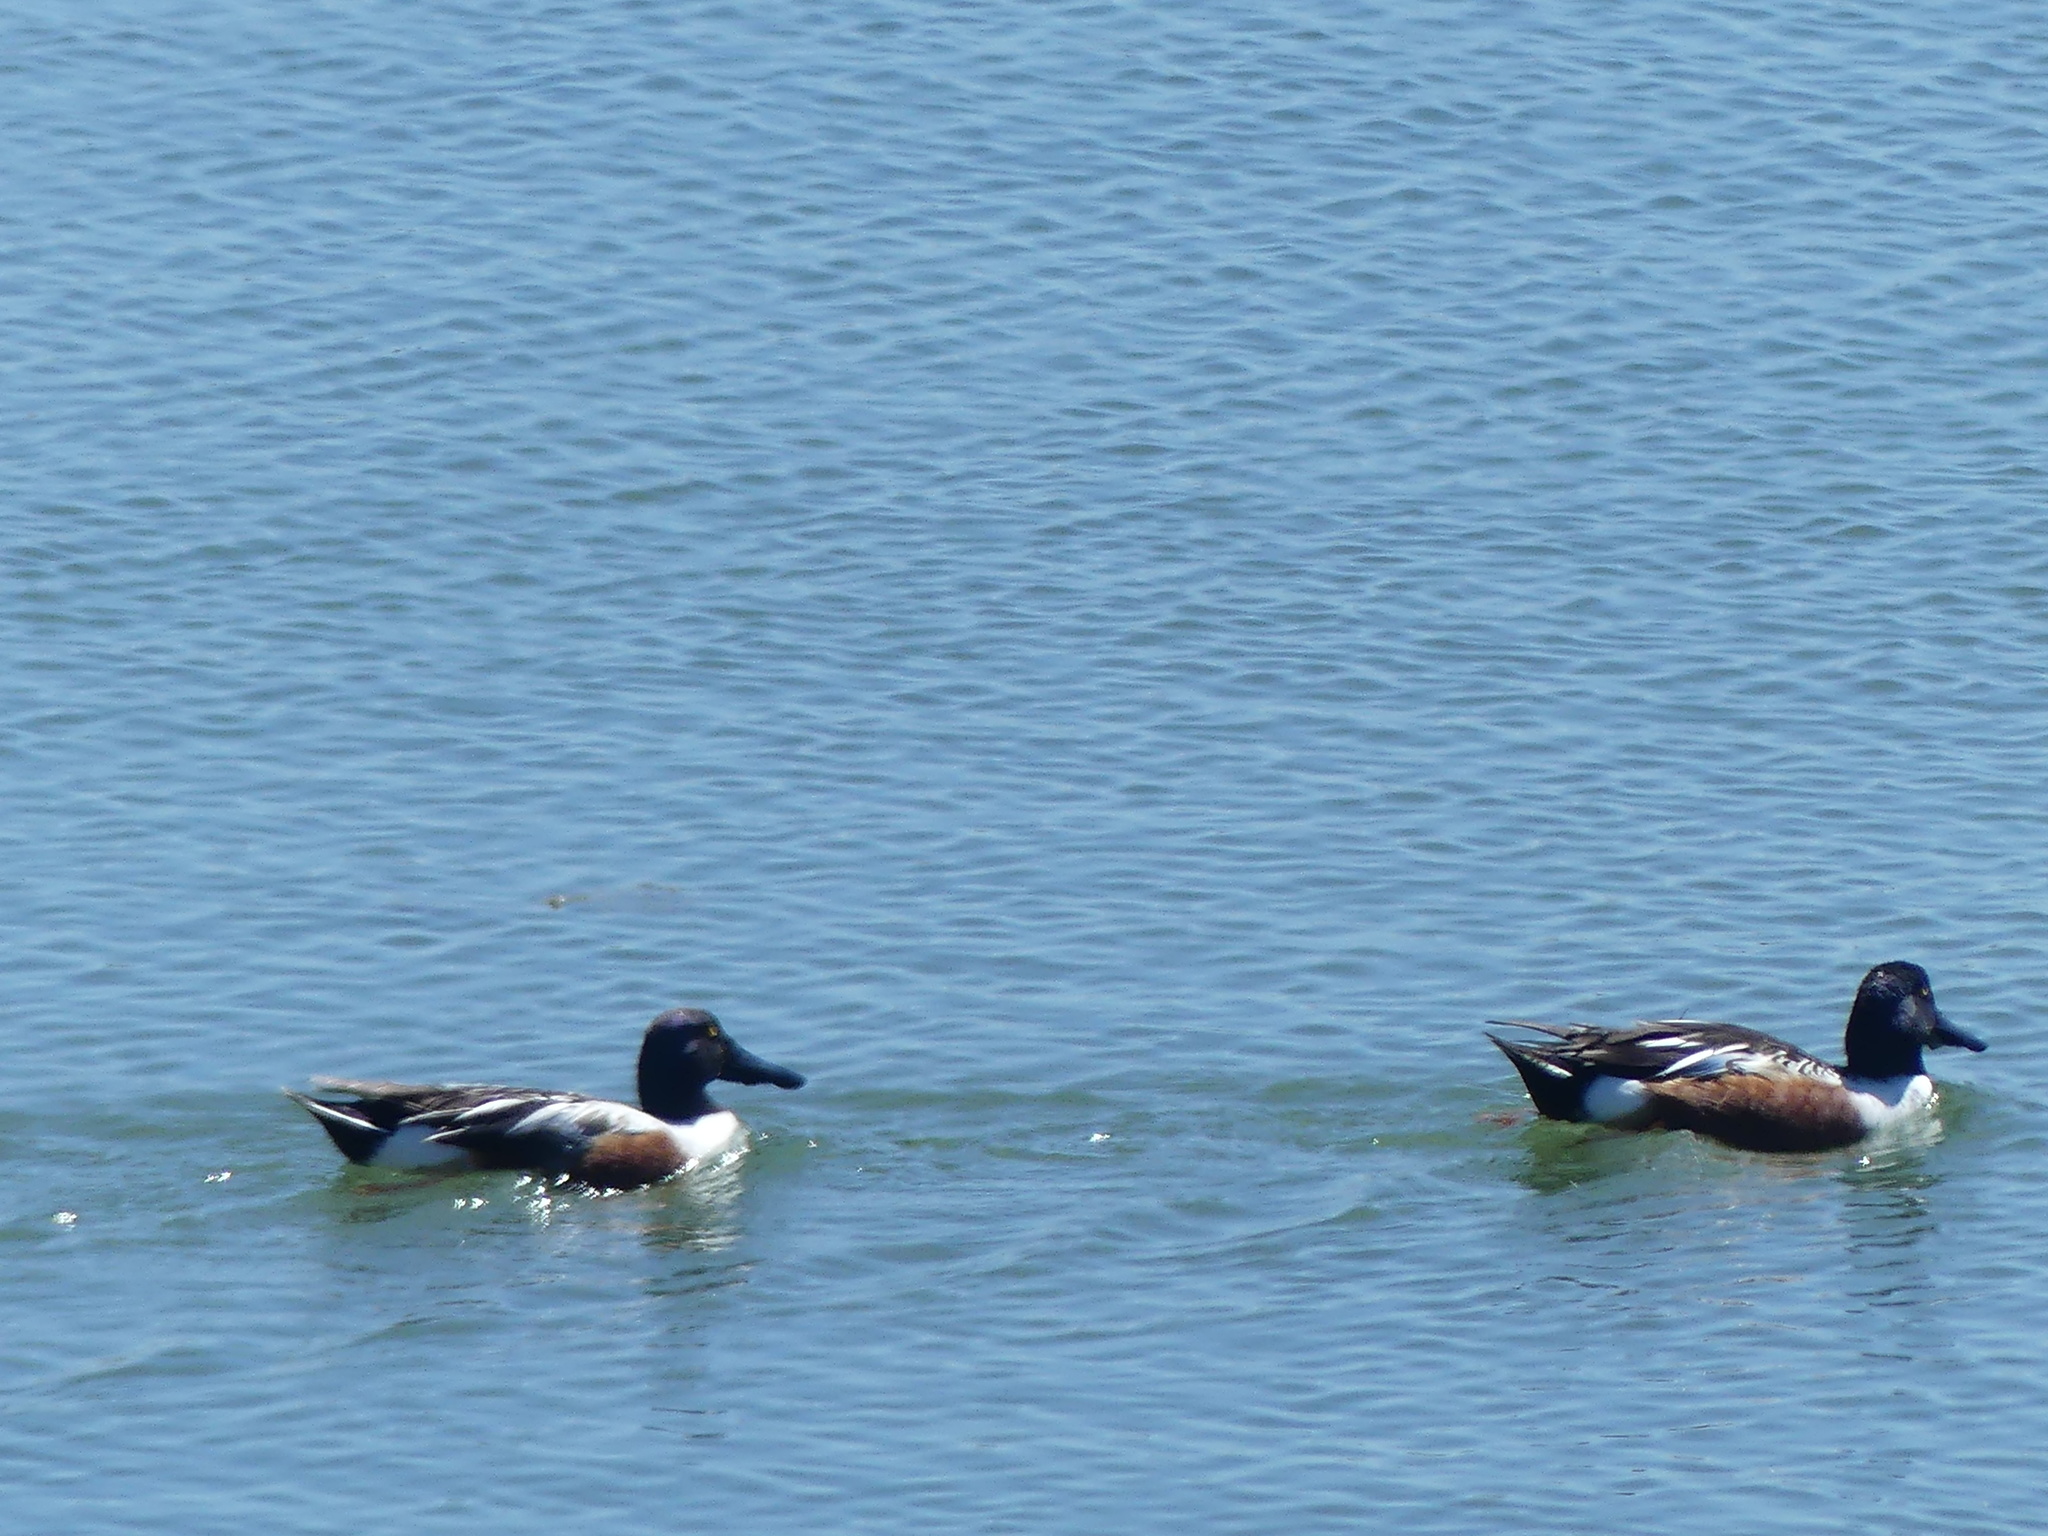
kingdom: Animalia
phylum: Chordata
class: Aves
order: Anseriformes
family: Anatidae
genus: Spatula
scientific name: Spatula clypeata
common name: Northern shoveler
